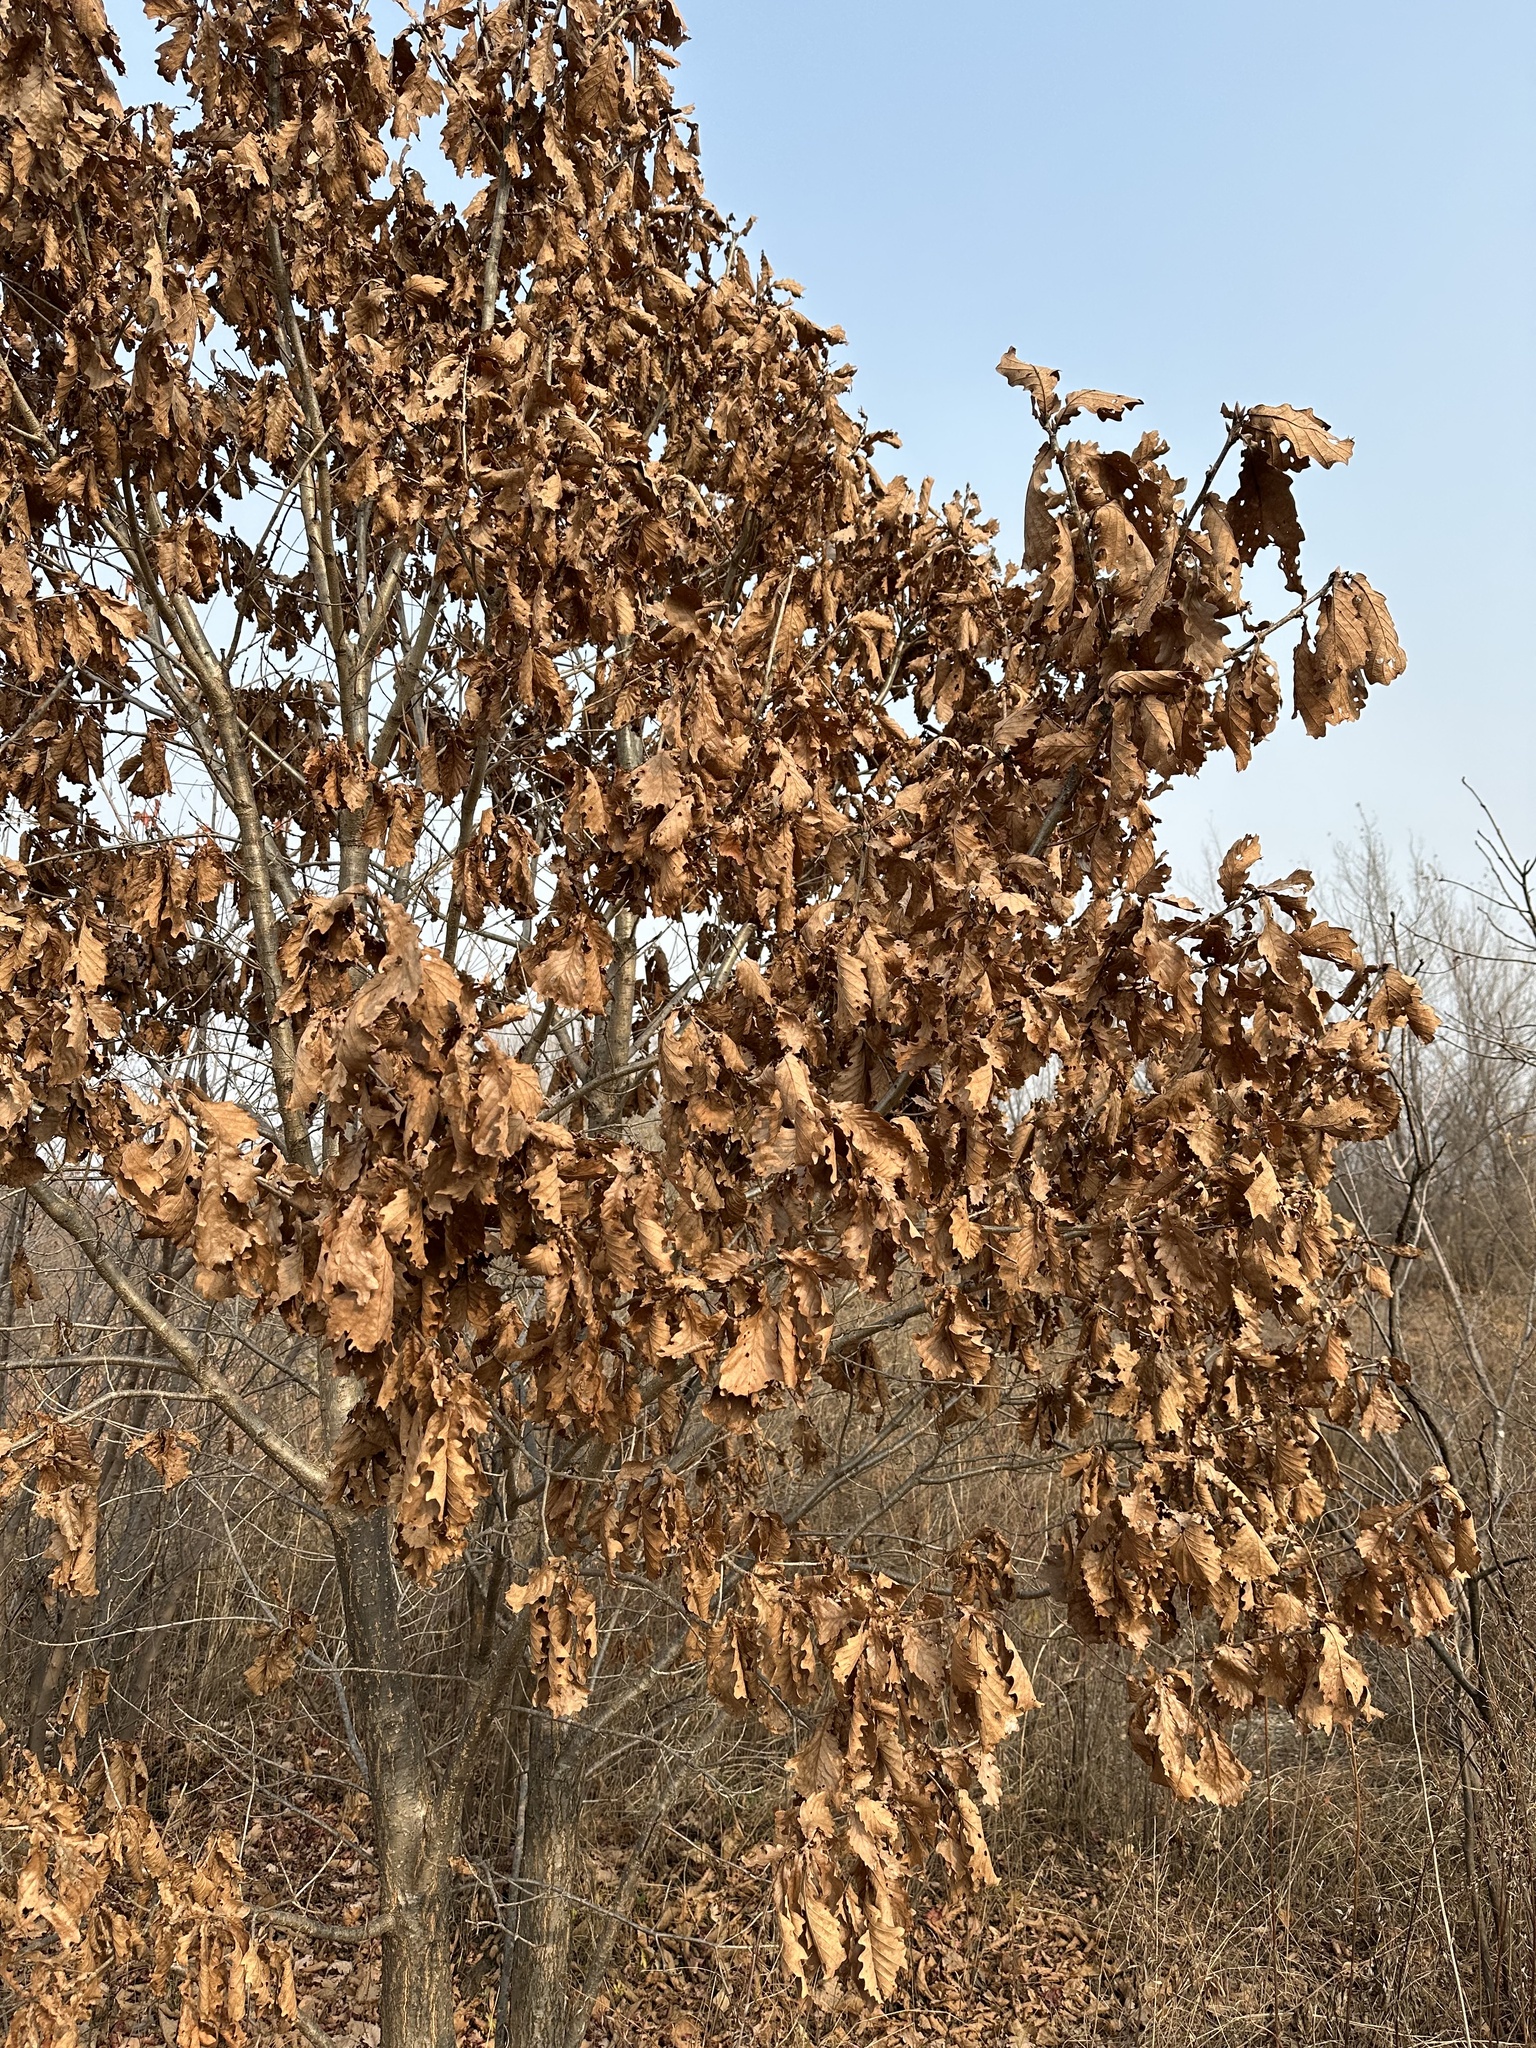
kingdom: Plantae
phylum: Tracheophyta
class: Magnoliopsida
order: Fagales
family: Fagaceae
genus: Quercus
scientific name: Quercus mongolica
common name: Mongolian oak
